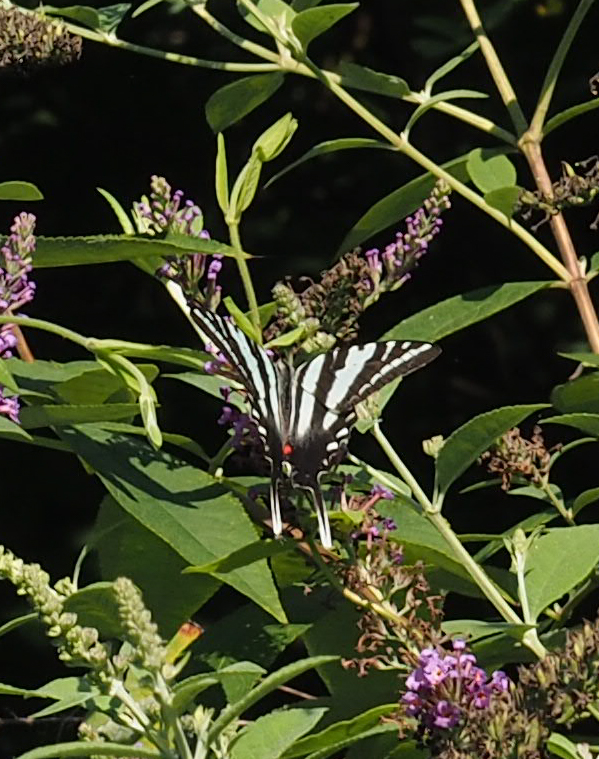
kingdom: Animalia
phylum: Arthropoda
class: Insecta
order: Lepidoptera
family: Papilionidae
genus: Protographium
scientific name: Protographium marcellus
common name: Zebra swallowtail
